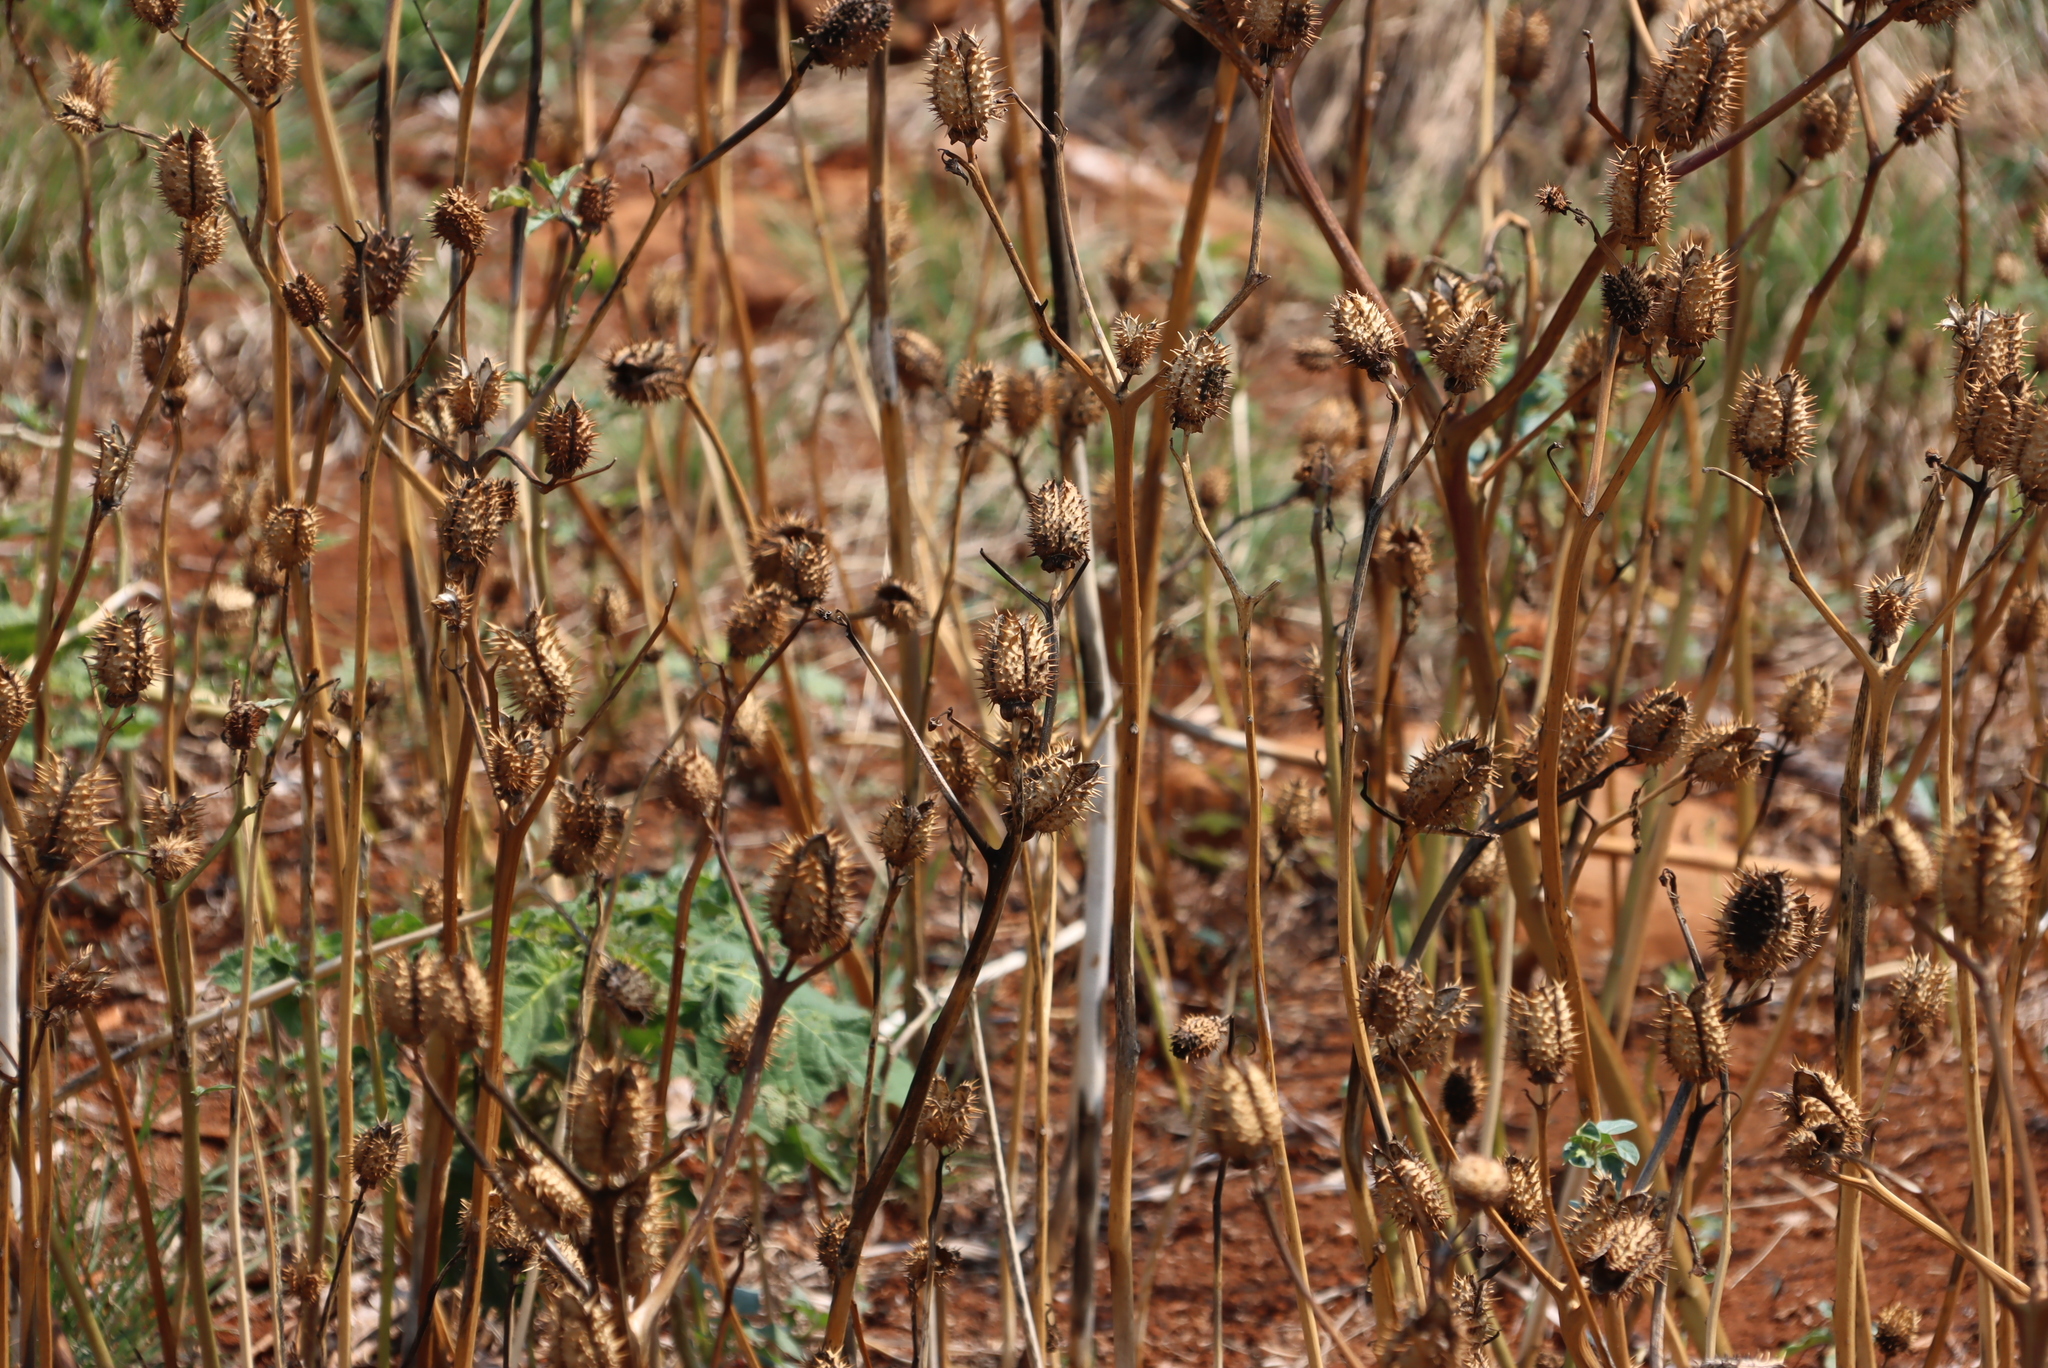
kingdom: Plantae
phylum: Tracheophyta
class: Magnoliopsida
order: Solanales
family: Solanaceae
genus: Datura
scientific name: Datura stramonium
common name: Thorn-apple
